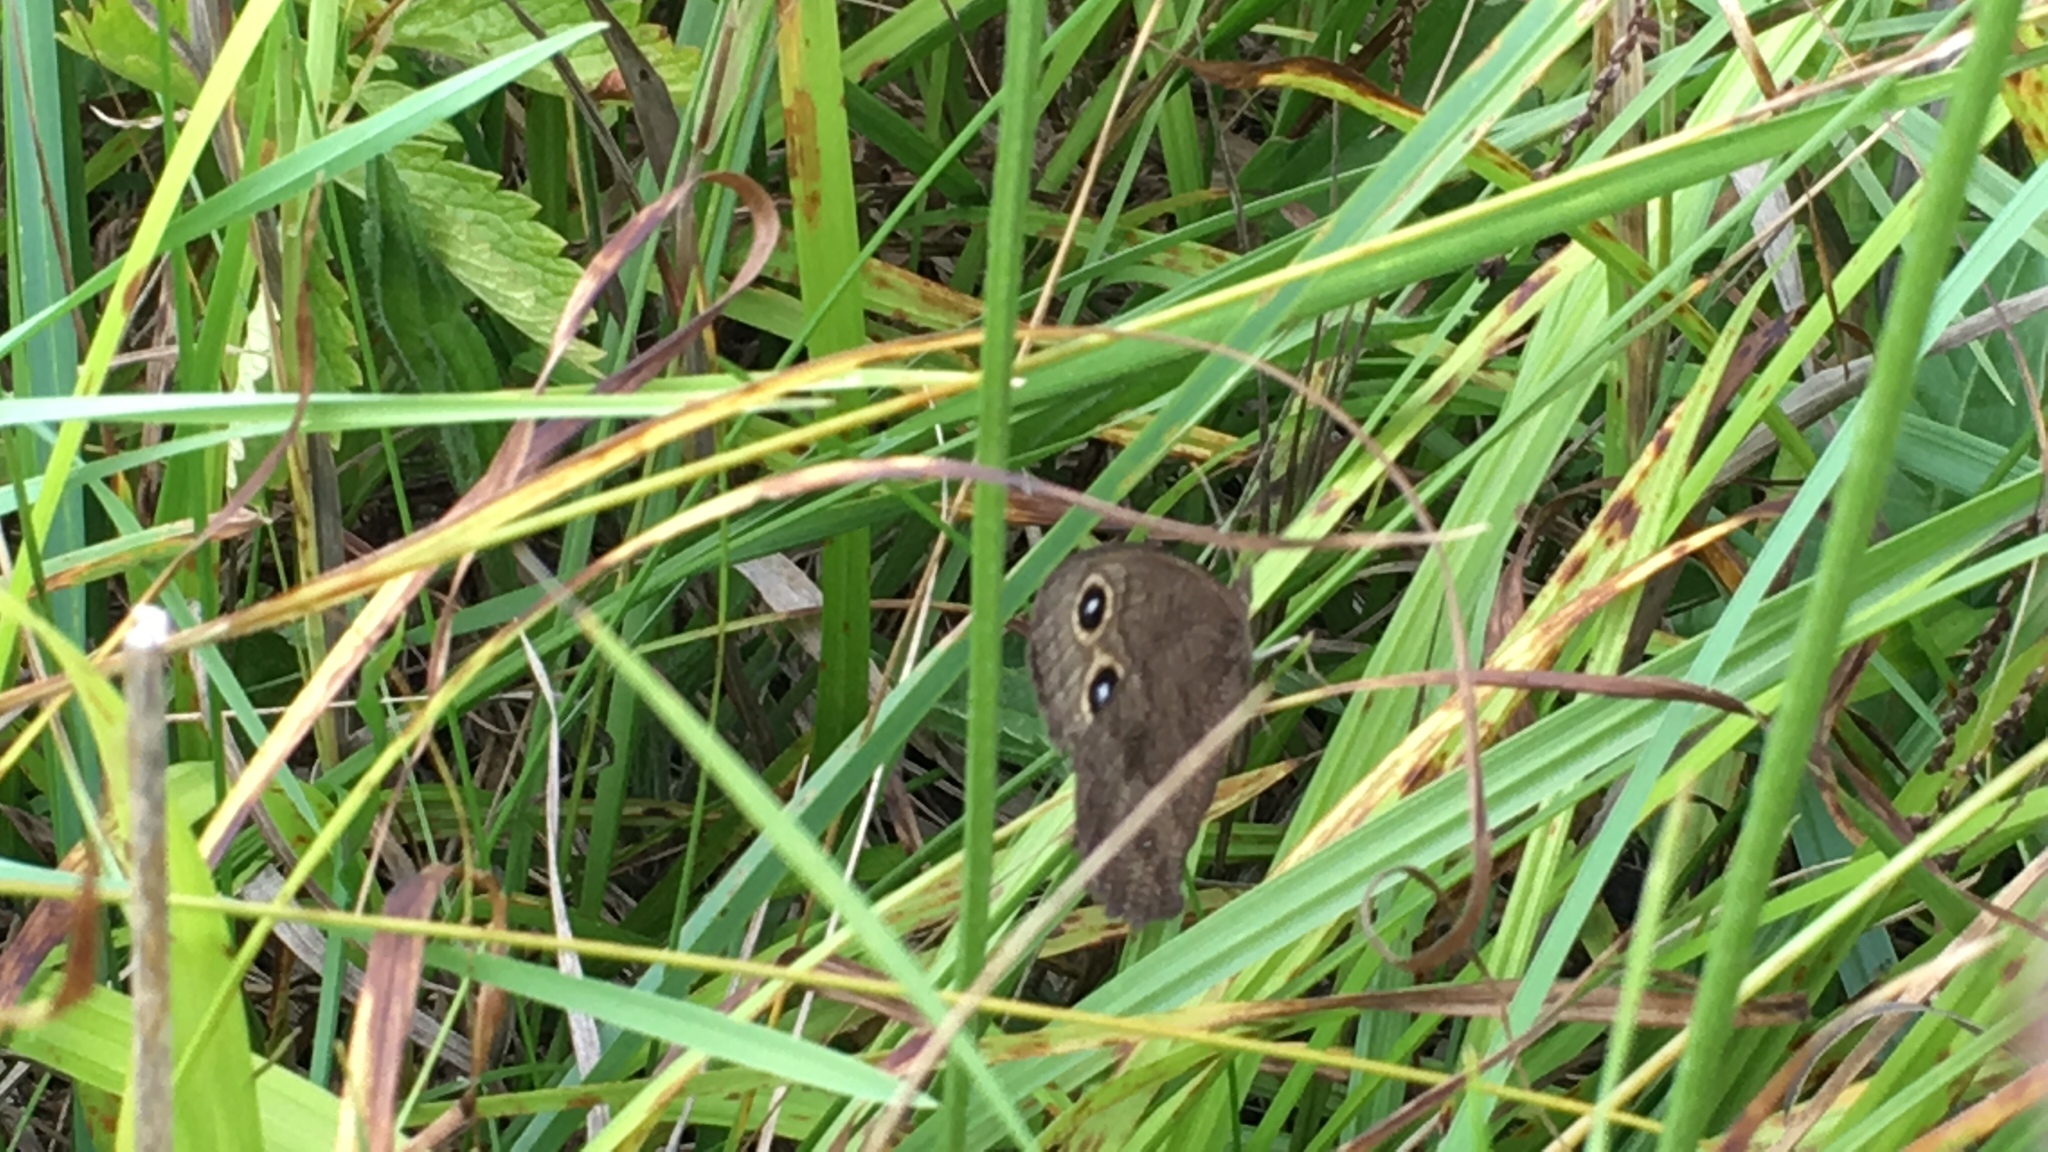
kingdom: Animalia
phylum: Arthropoda
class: Insecta
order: Lepidoptera
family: Nymphalidae
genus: Cercyonis
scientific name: Cercyonis pegala
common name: Common wood-nymph
